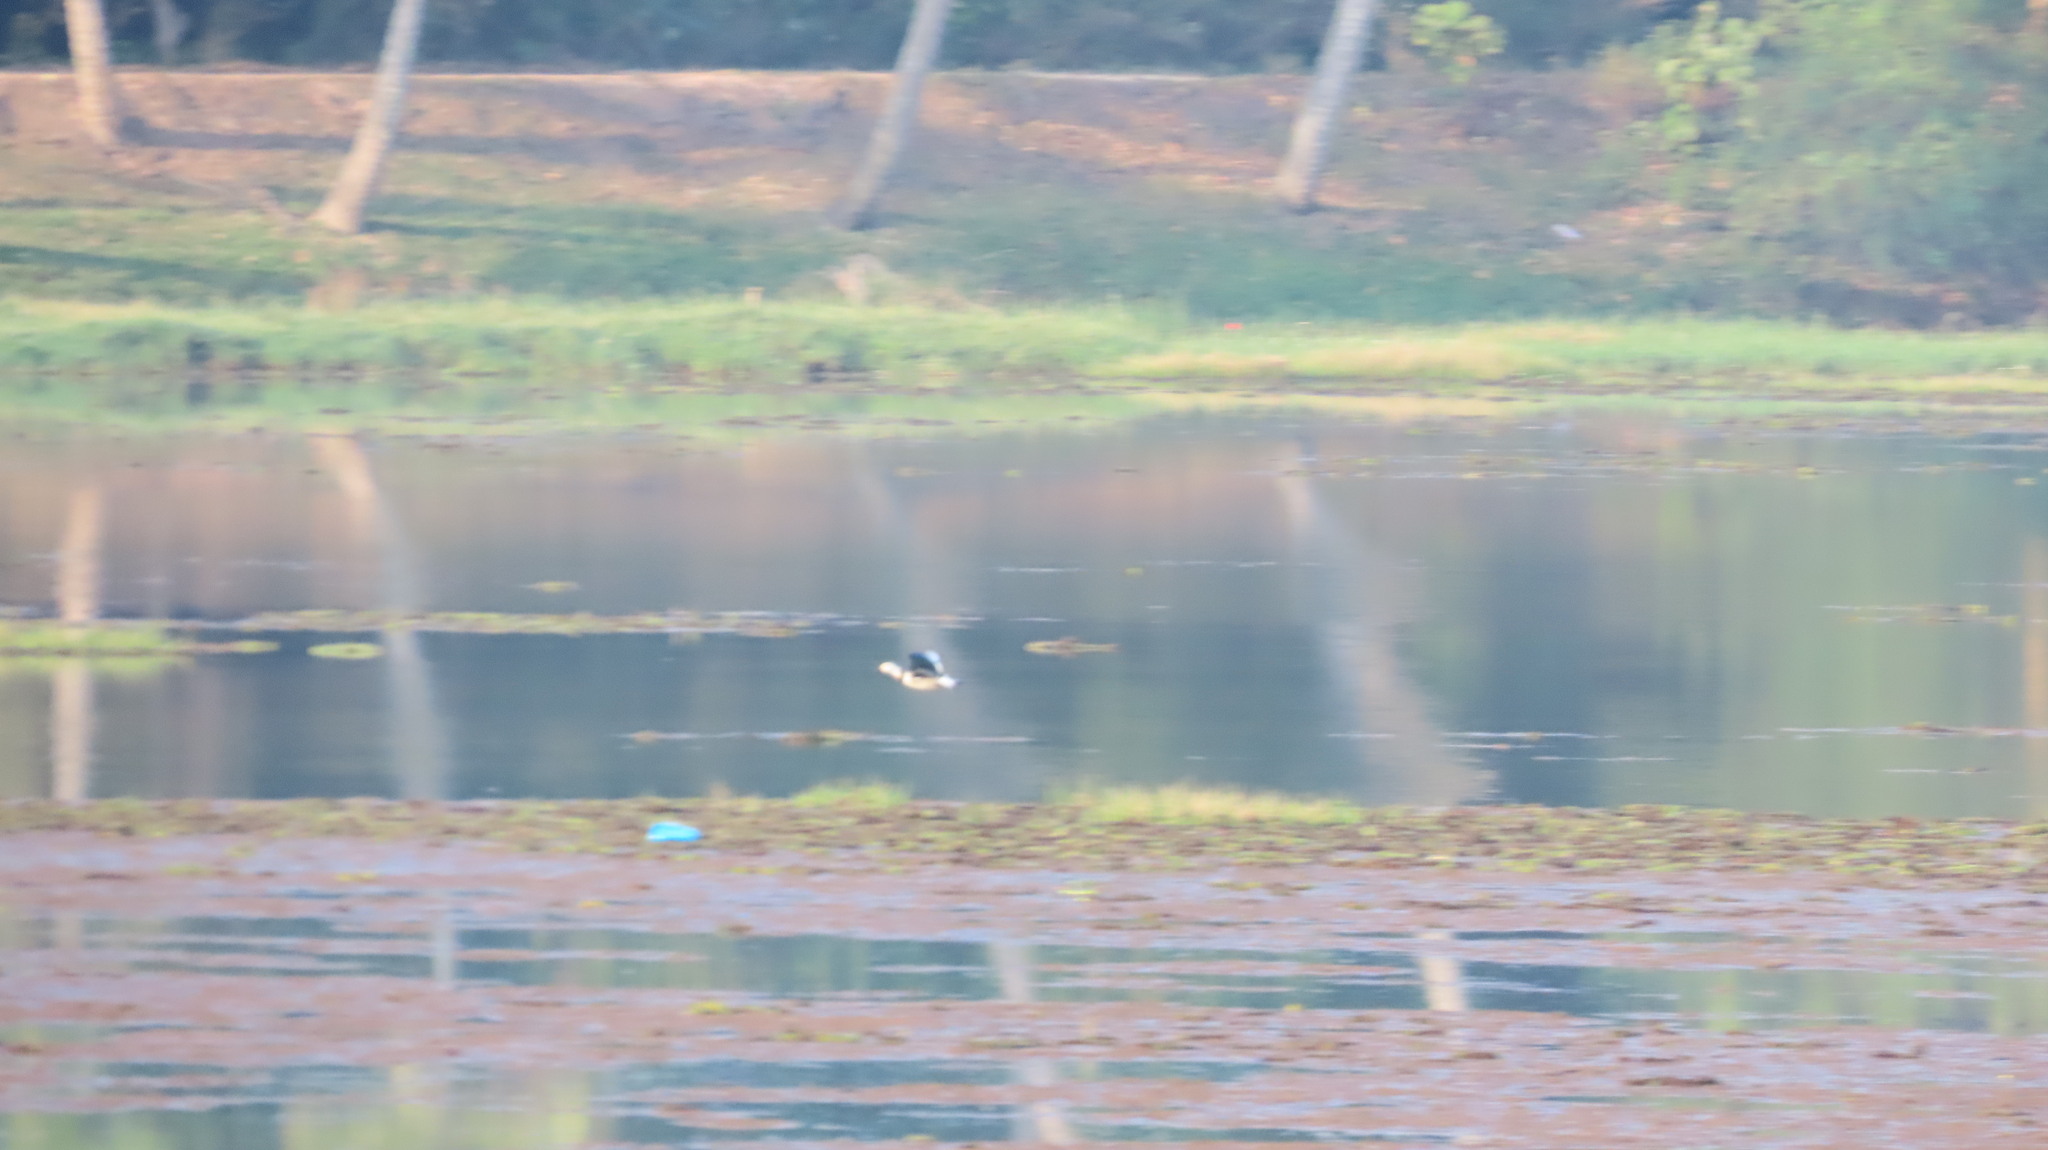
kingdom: Animalia
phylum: Chordata
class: Aves
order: Anseriformes
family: Anatidae
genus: Nettapus
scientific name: Nettapus coromandelianus
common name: Cotton pygmy-goose
